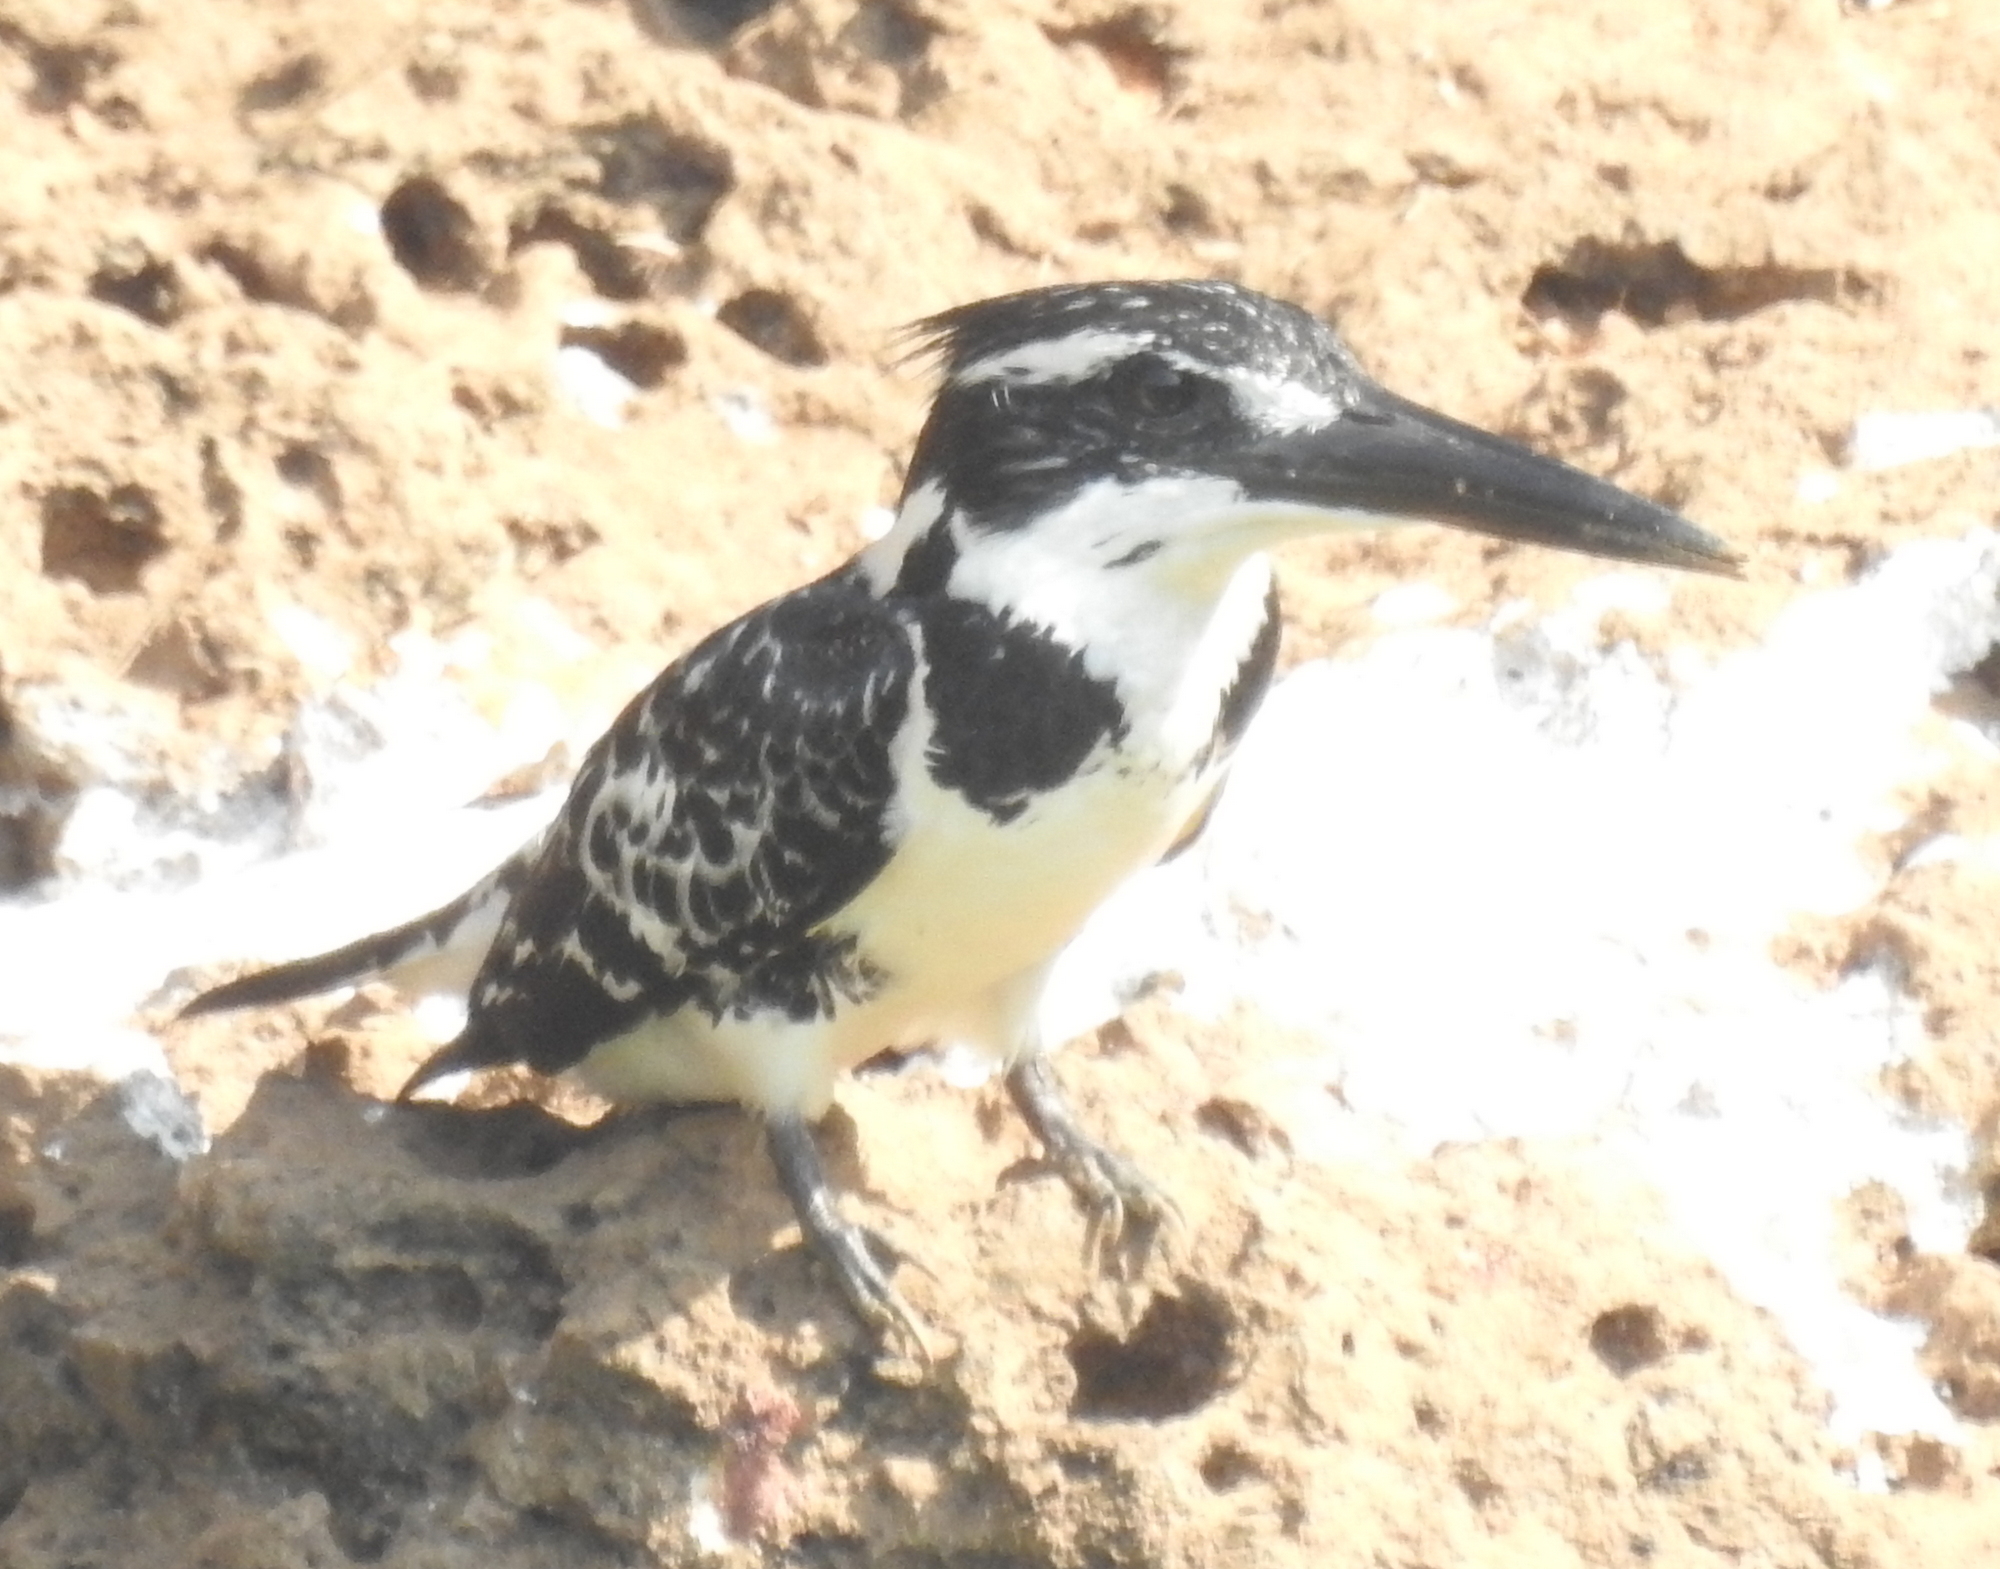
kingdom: Animalia
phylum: Chordata
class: Aves
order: Coraciiformes
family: Alcedinidae
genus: Ceryle
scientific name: Ceryle rudis
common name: Pied kingfisher
